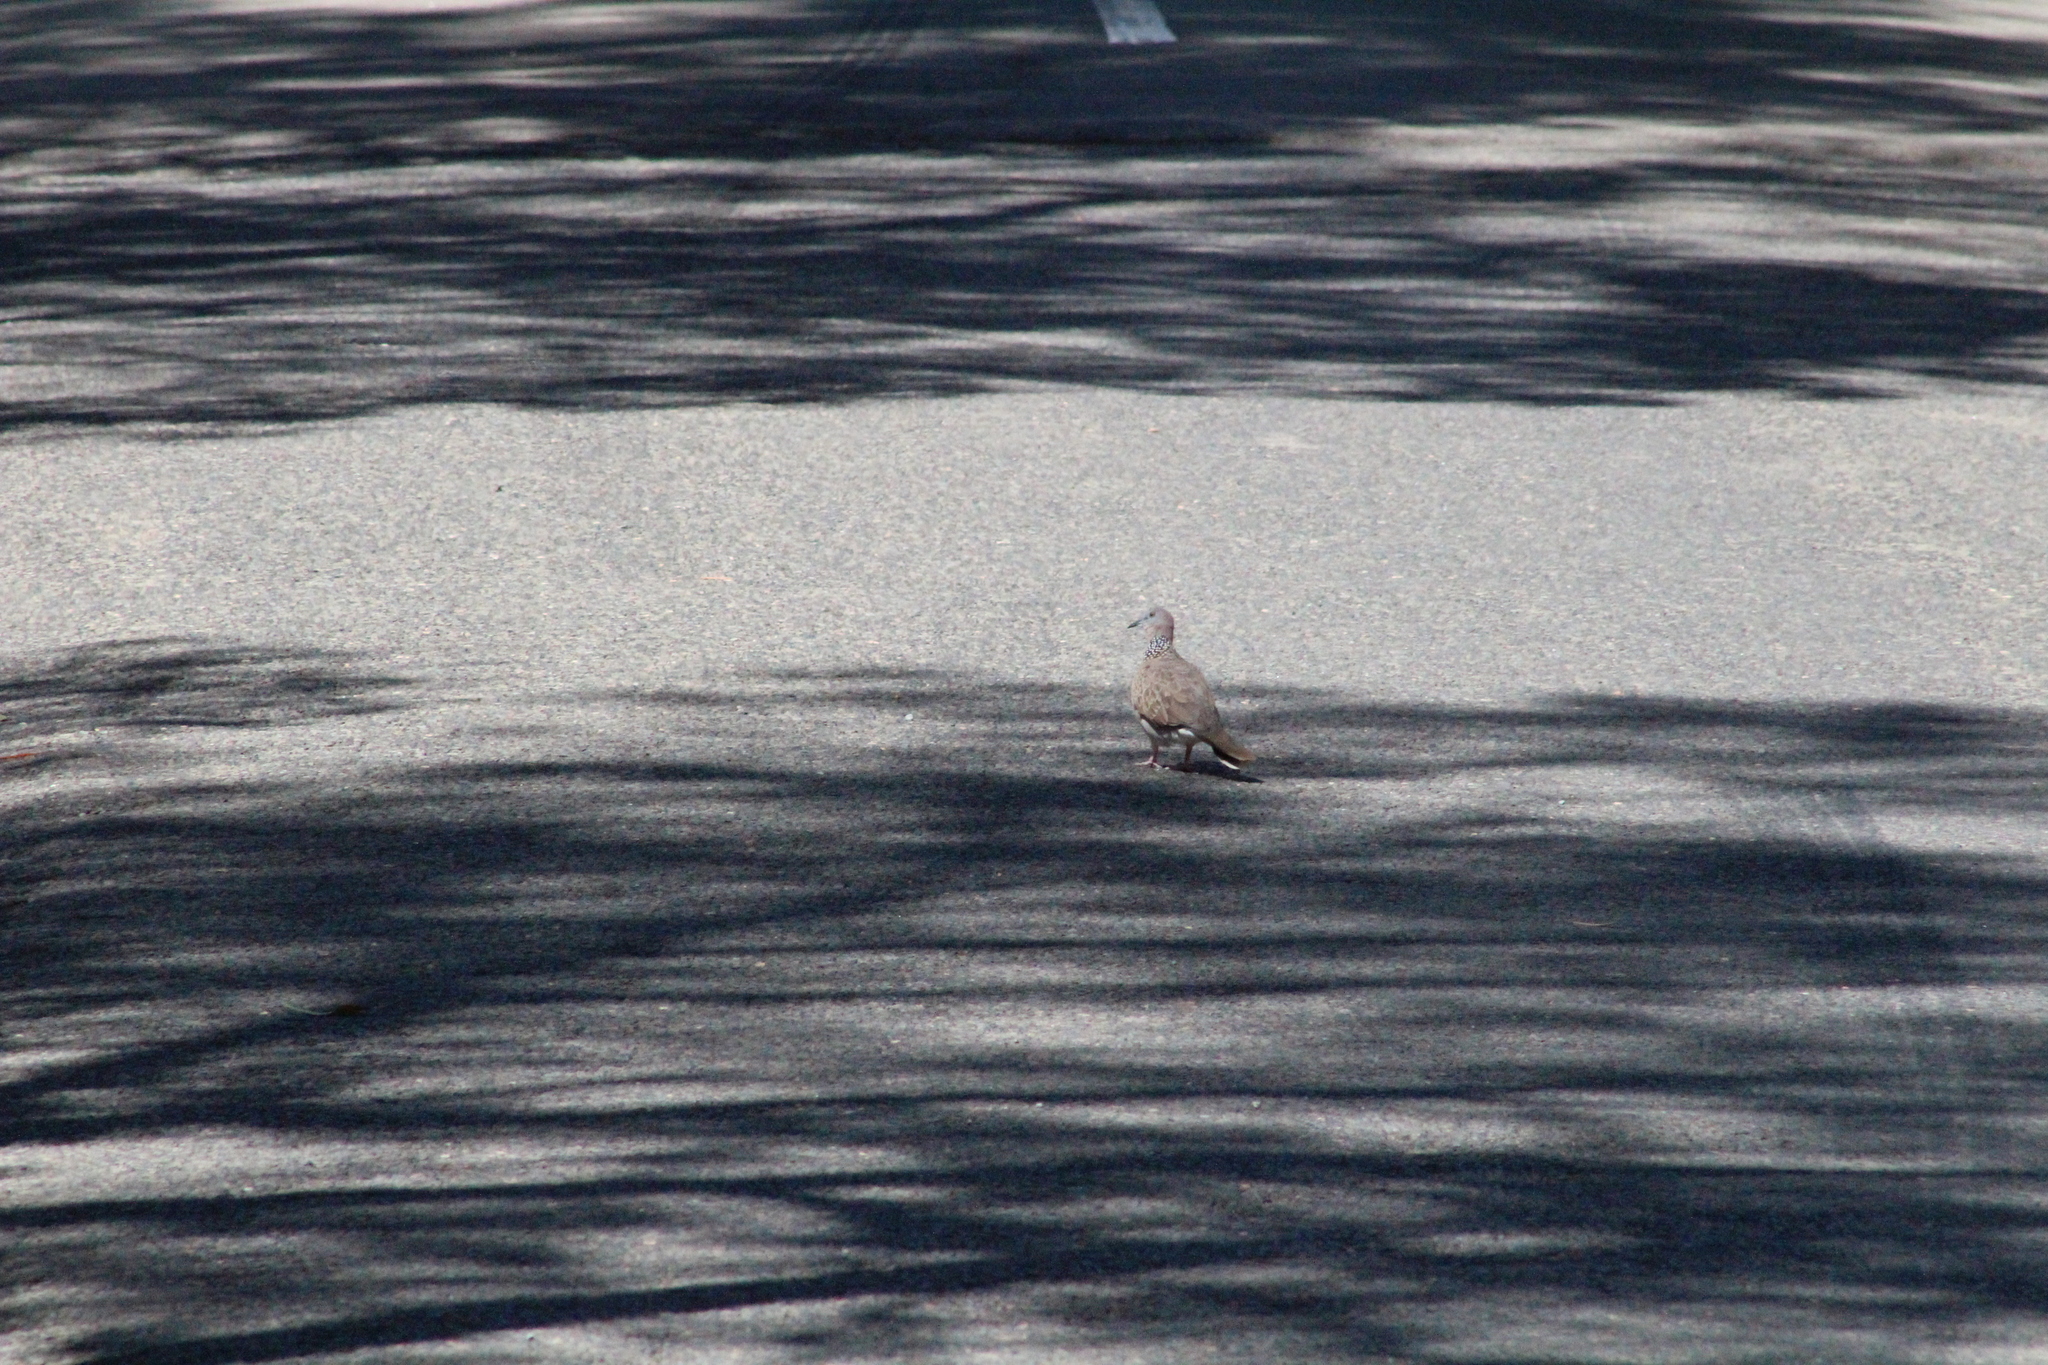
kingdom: Animalia
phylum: Chordata
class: Aves
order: Columbiformes
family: Columbidae
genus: Spilopelia
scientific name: Spilopelia chinensis
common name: Spotted dove
